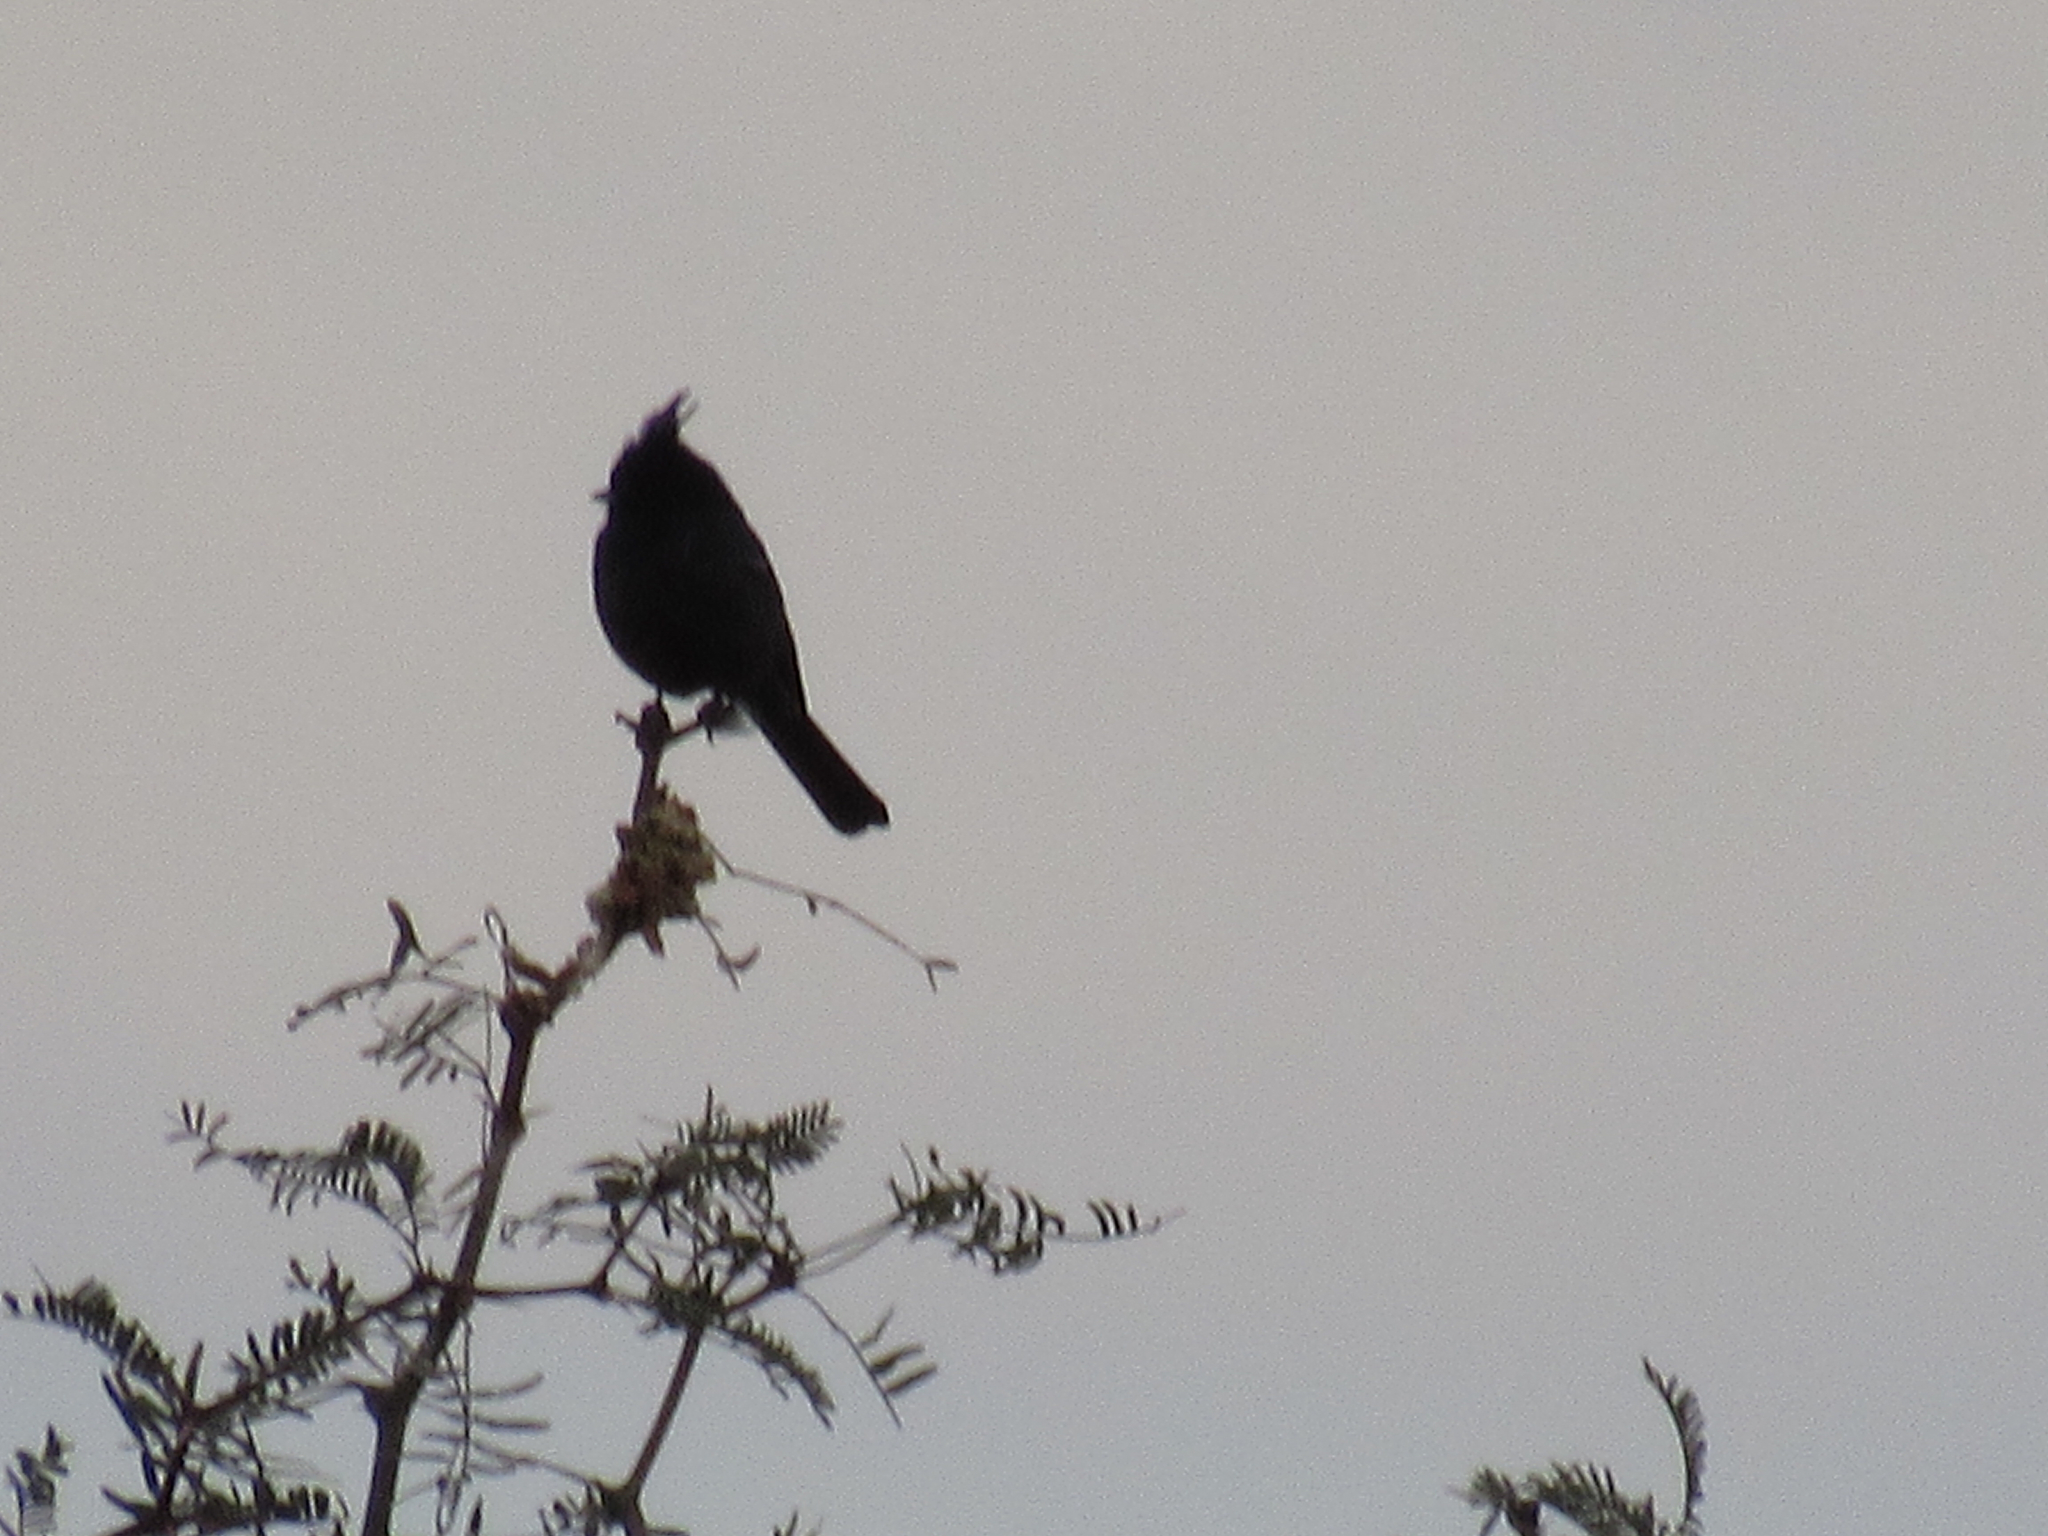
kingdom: Animalia
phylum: Chordata
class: Aves
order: Passeriformes
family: Ptilogonatidae
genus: Phainopepla
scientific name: Phainopepla nitens
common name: Phainopepla
